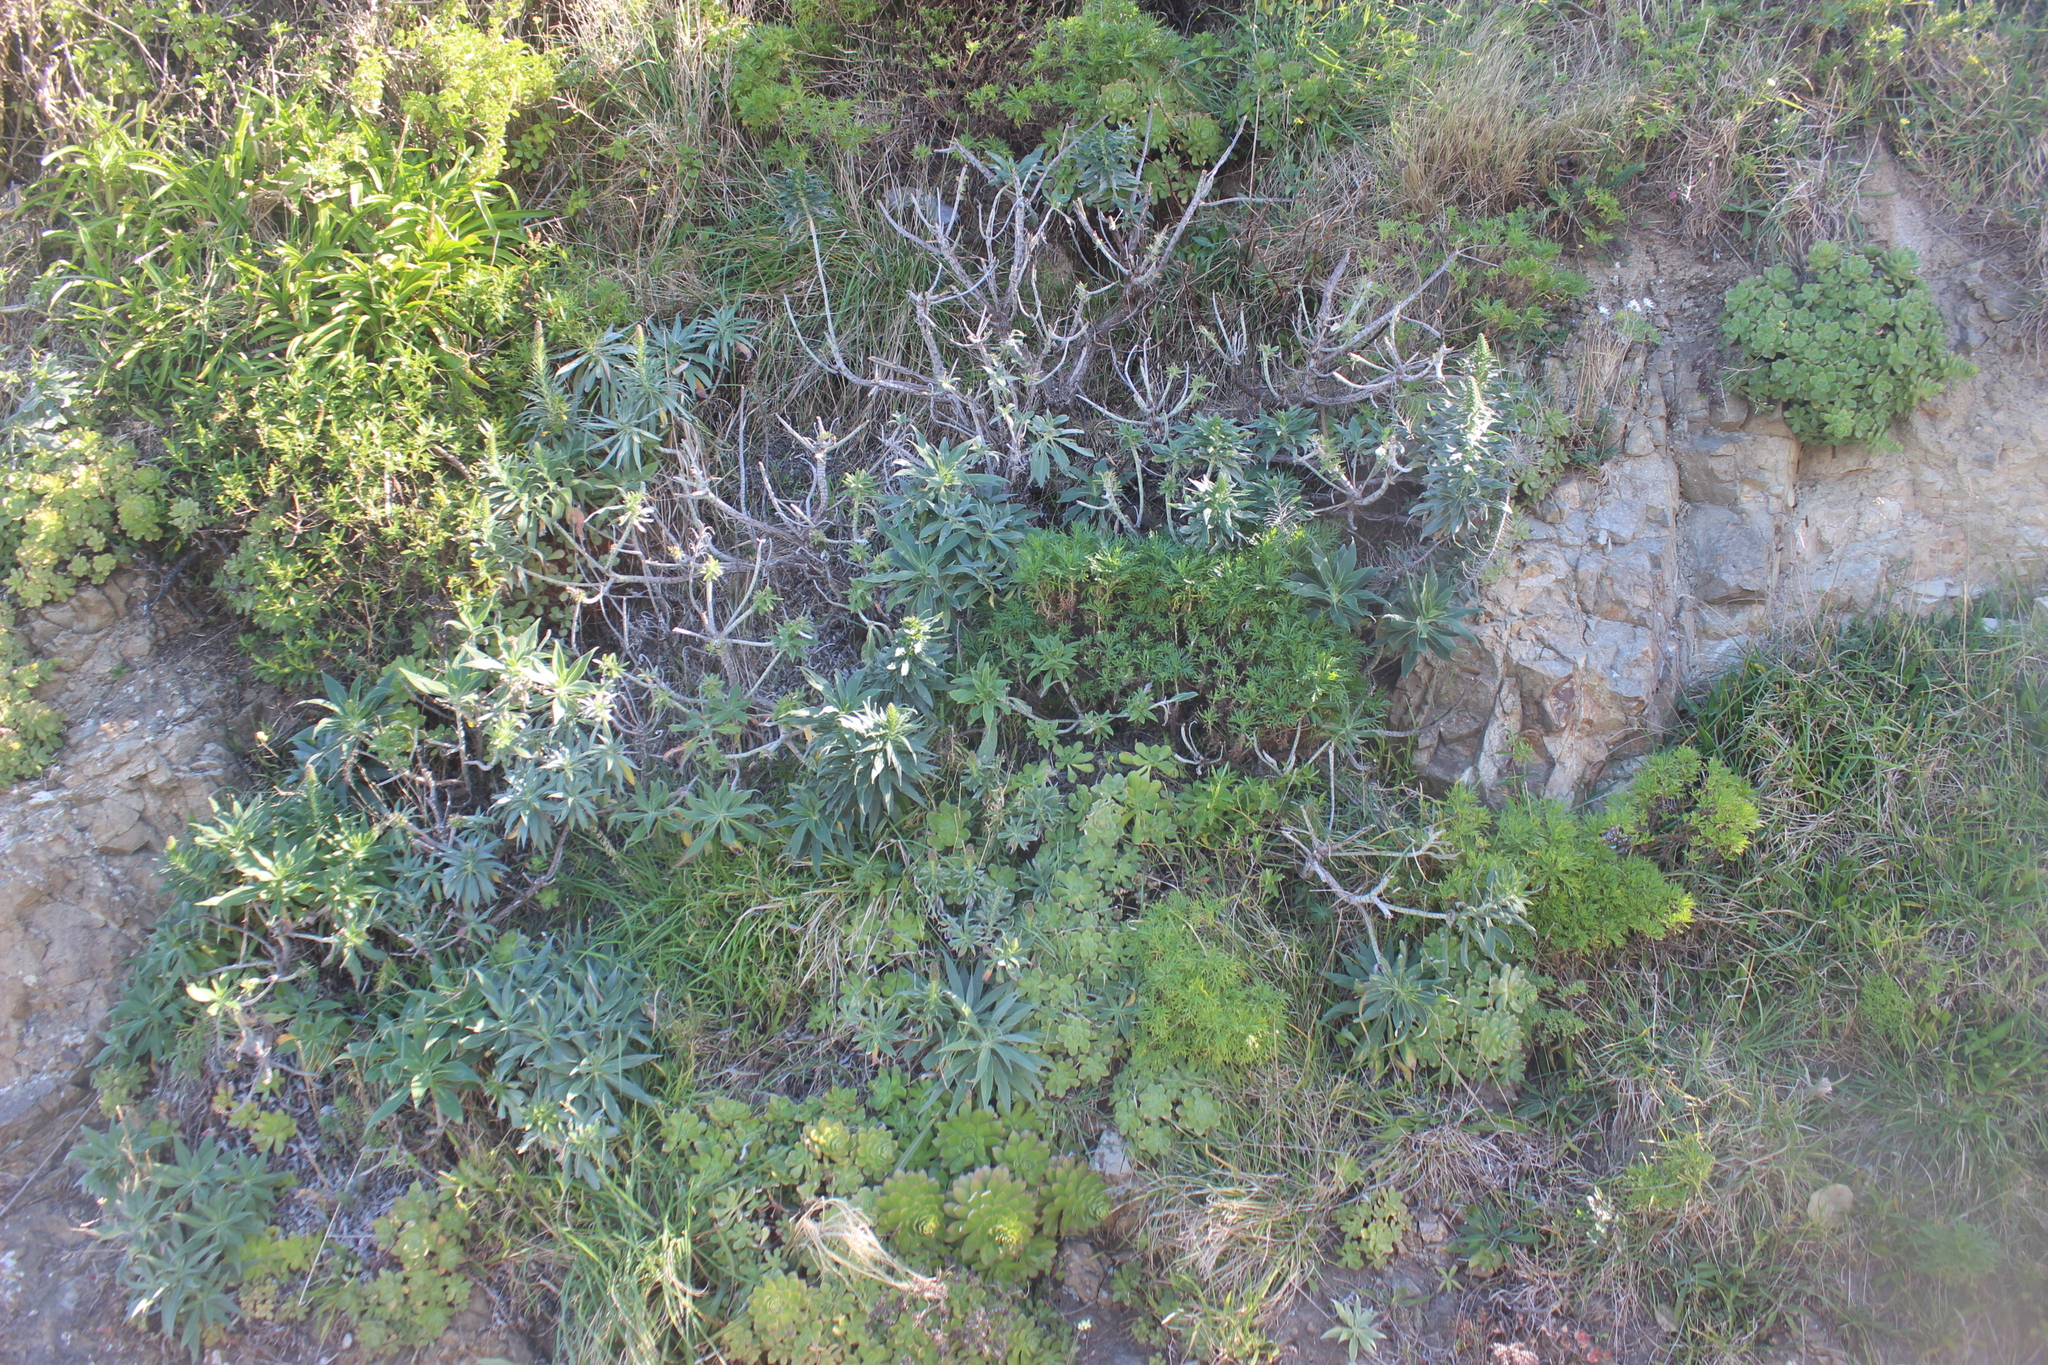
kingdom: Plantae
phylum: Tracheophyta
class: Magnoliopsida
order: Boraginales
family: Boraginaceae
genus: Echium
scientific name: Echium candicans
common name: Pride of madeira
